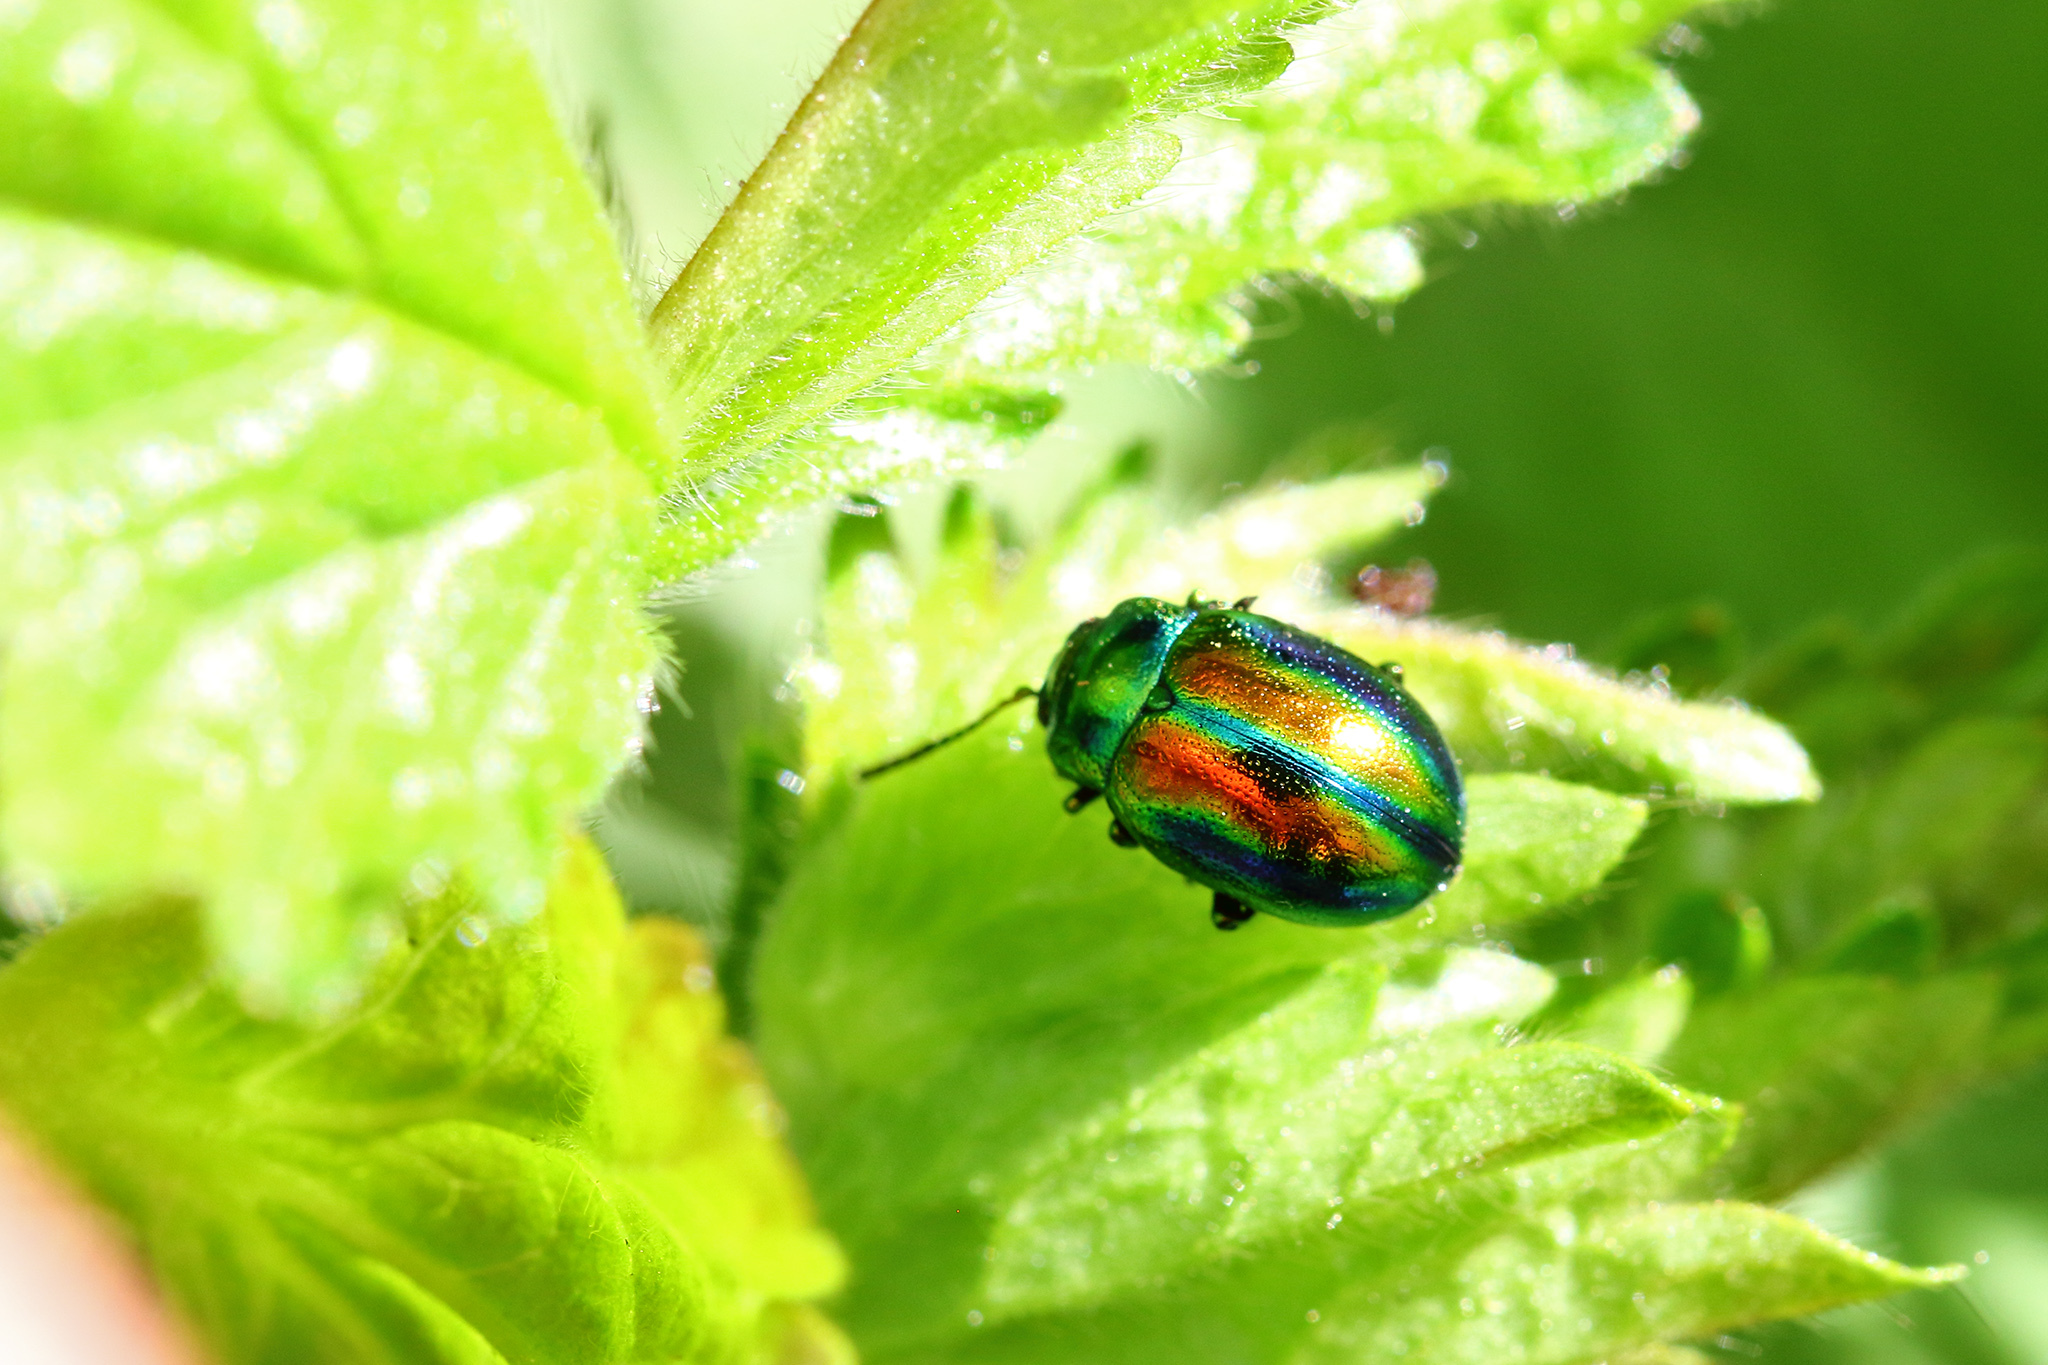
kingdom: Animalia
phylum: Arthropoda
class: Insecta
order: Coleoptera
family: Chrysomelidae
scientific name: Chrysomelidae
